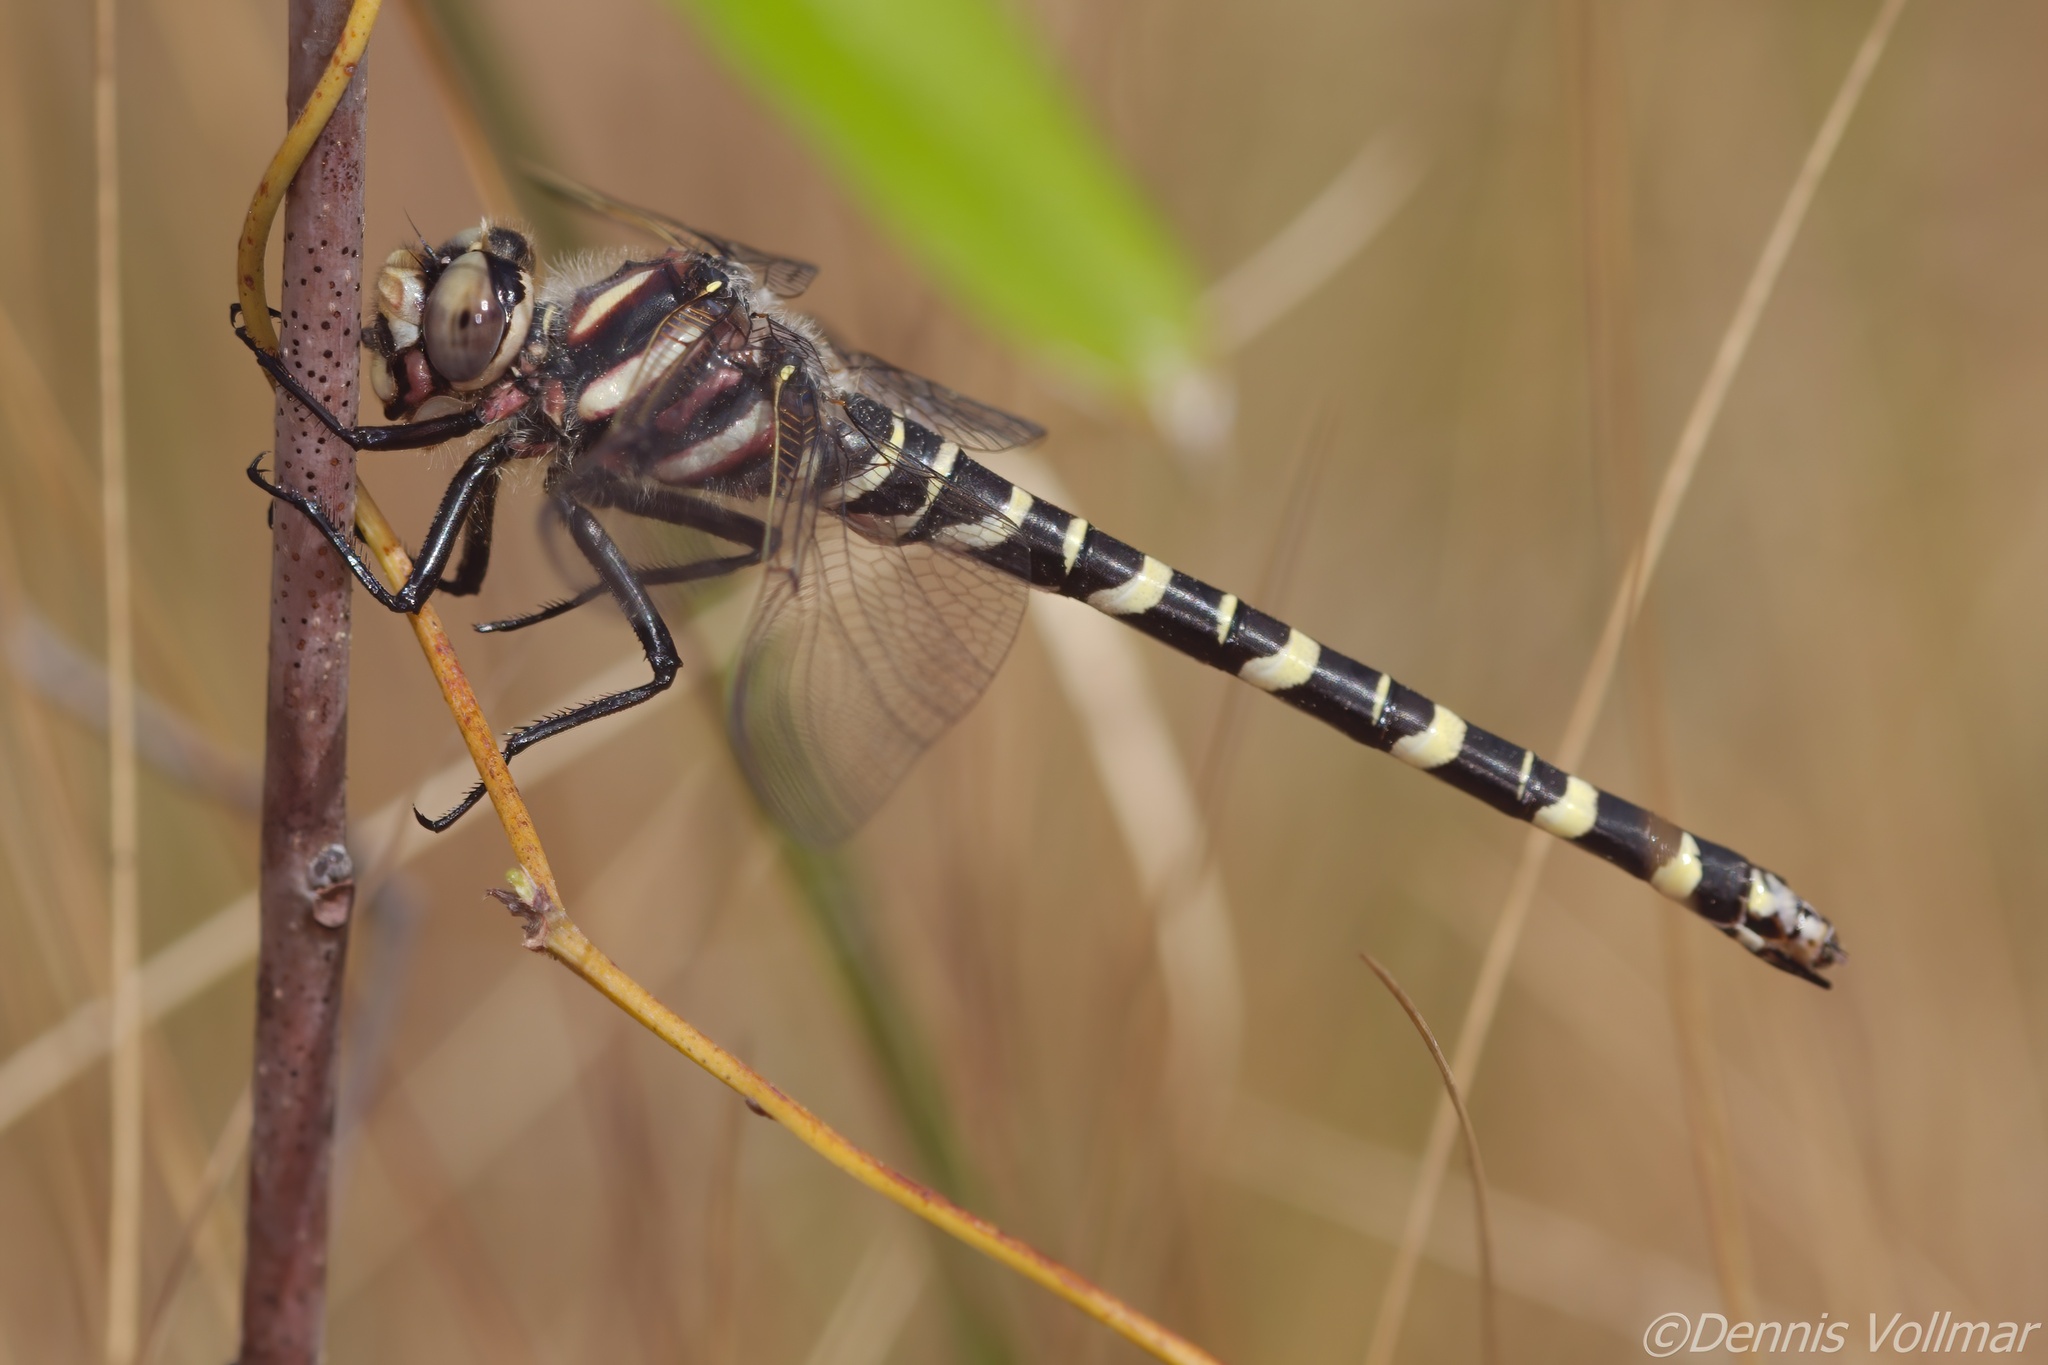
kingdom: Animalia
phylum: Arthropoda
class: Insecta
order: Odonata
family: Cordulegastridae
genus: Cordulegaster
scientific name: Cordulegaster sayi
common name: Say's spiketail
